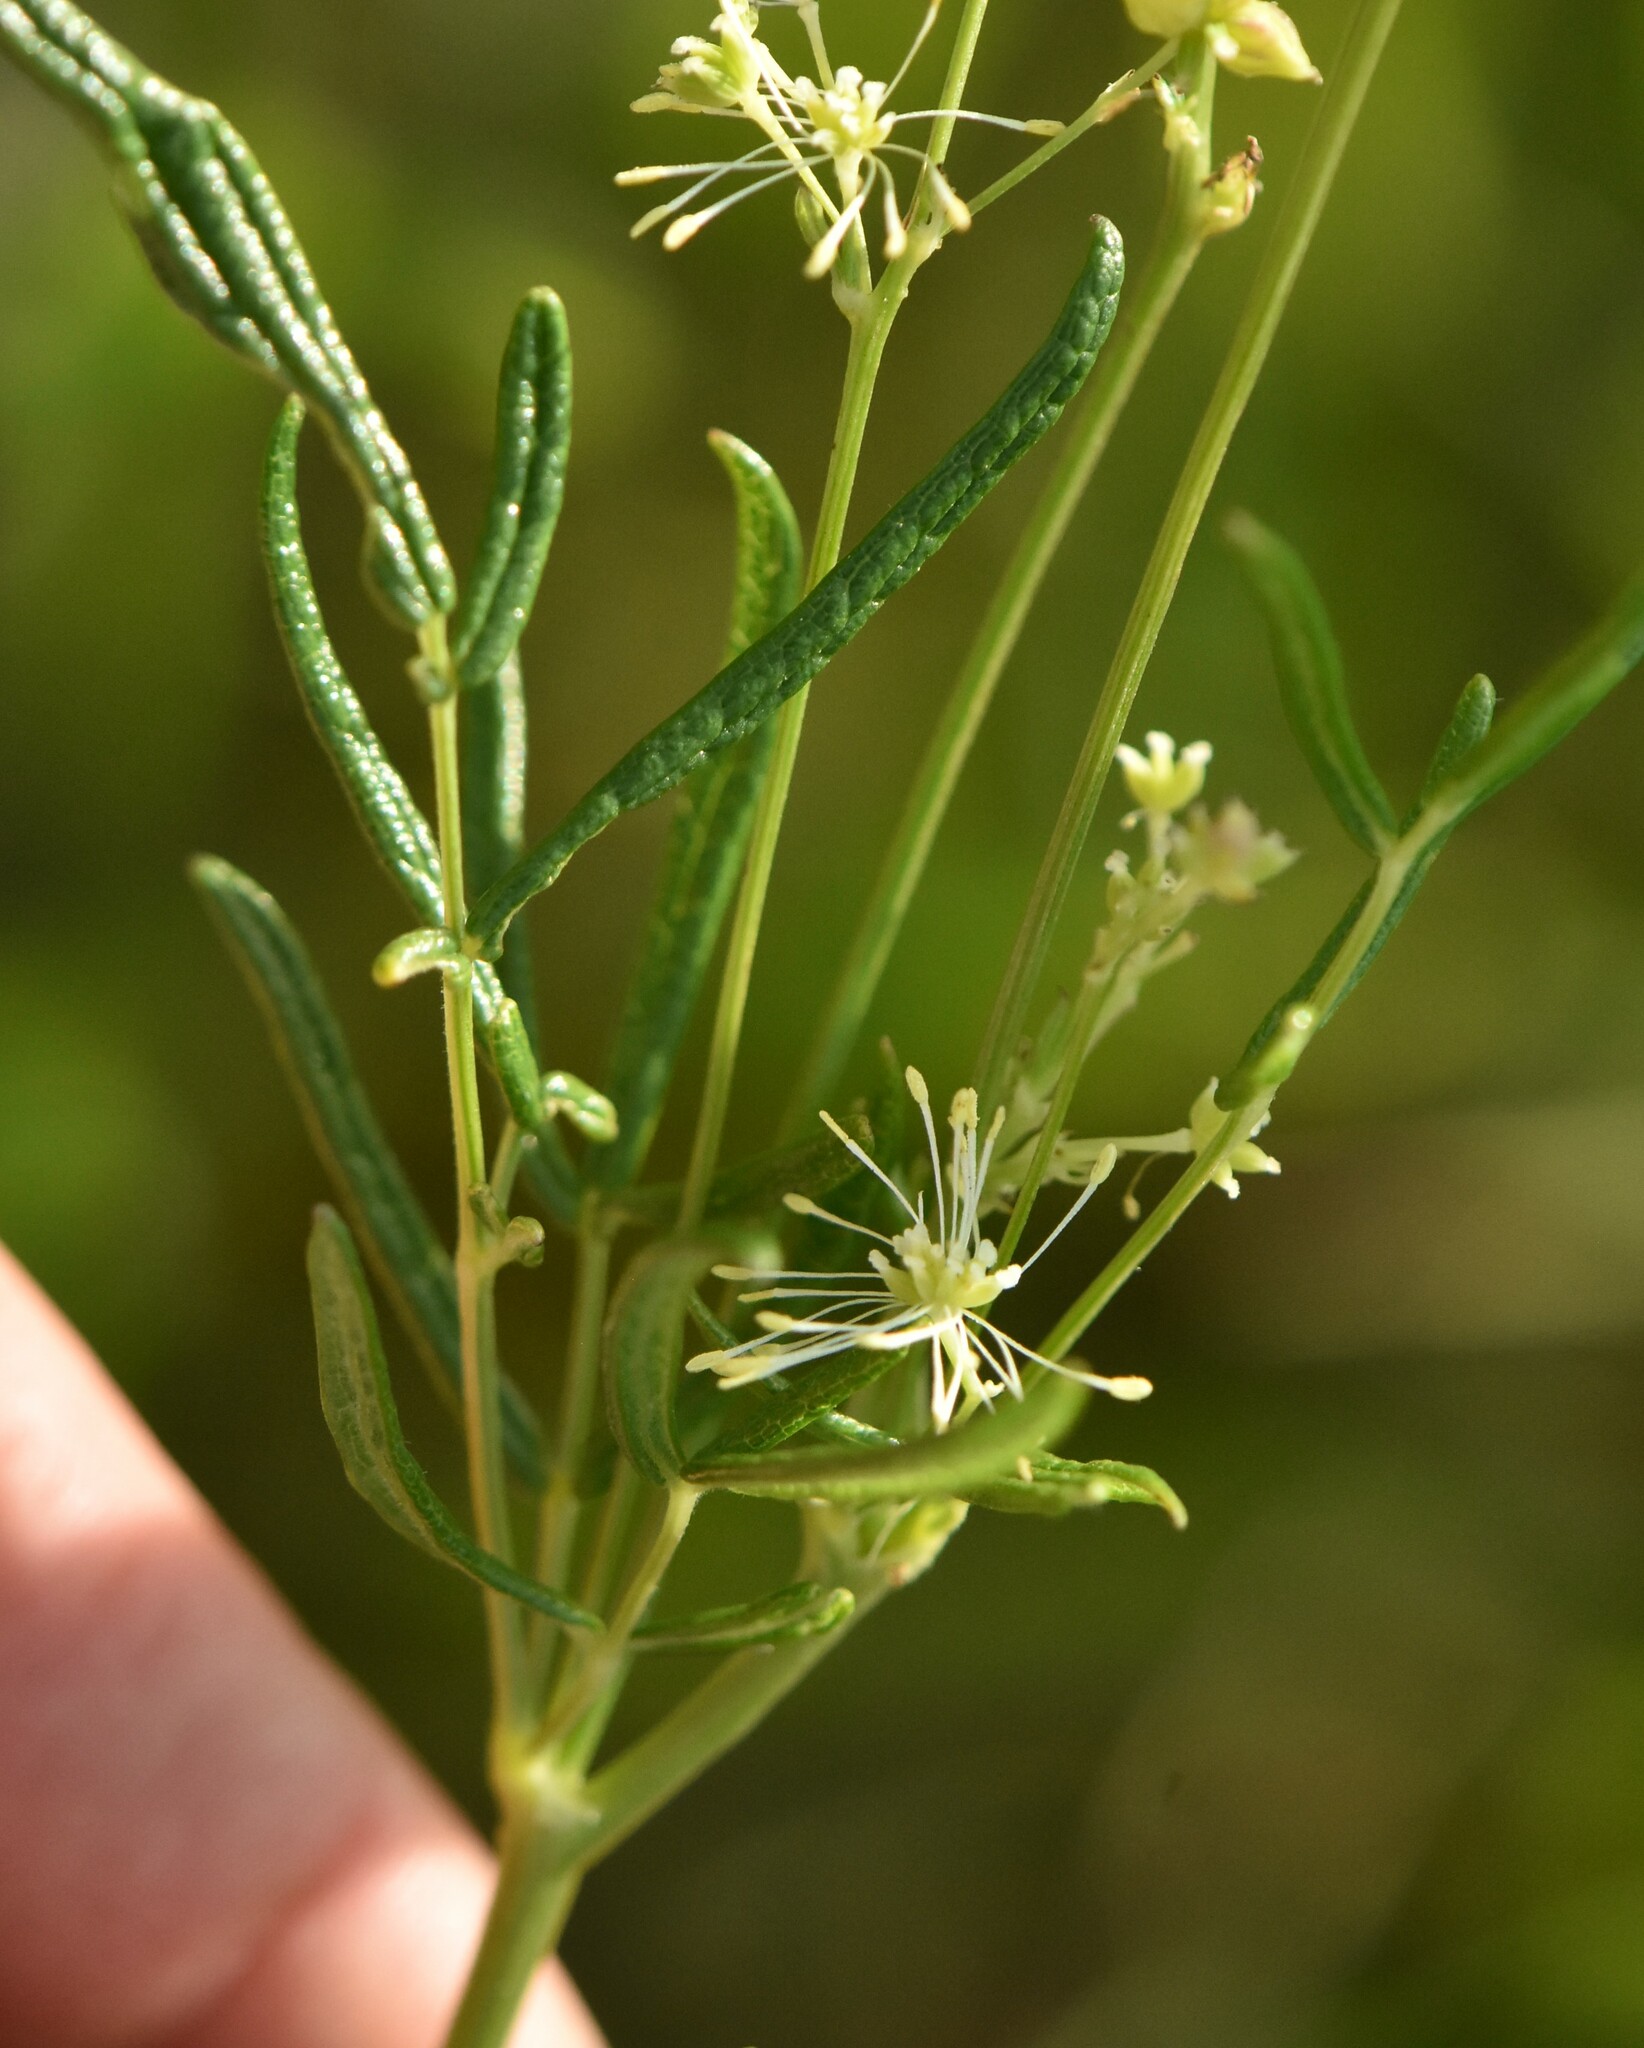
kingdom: Plantae
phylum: Tracheophyta
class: Magnoliopsida
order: Ranunculales
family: Ranunculaceae
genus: Thalictrum
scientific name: Thalictrum lucidum
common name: Shining meadow-rue
